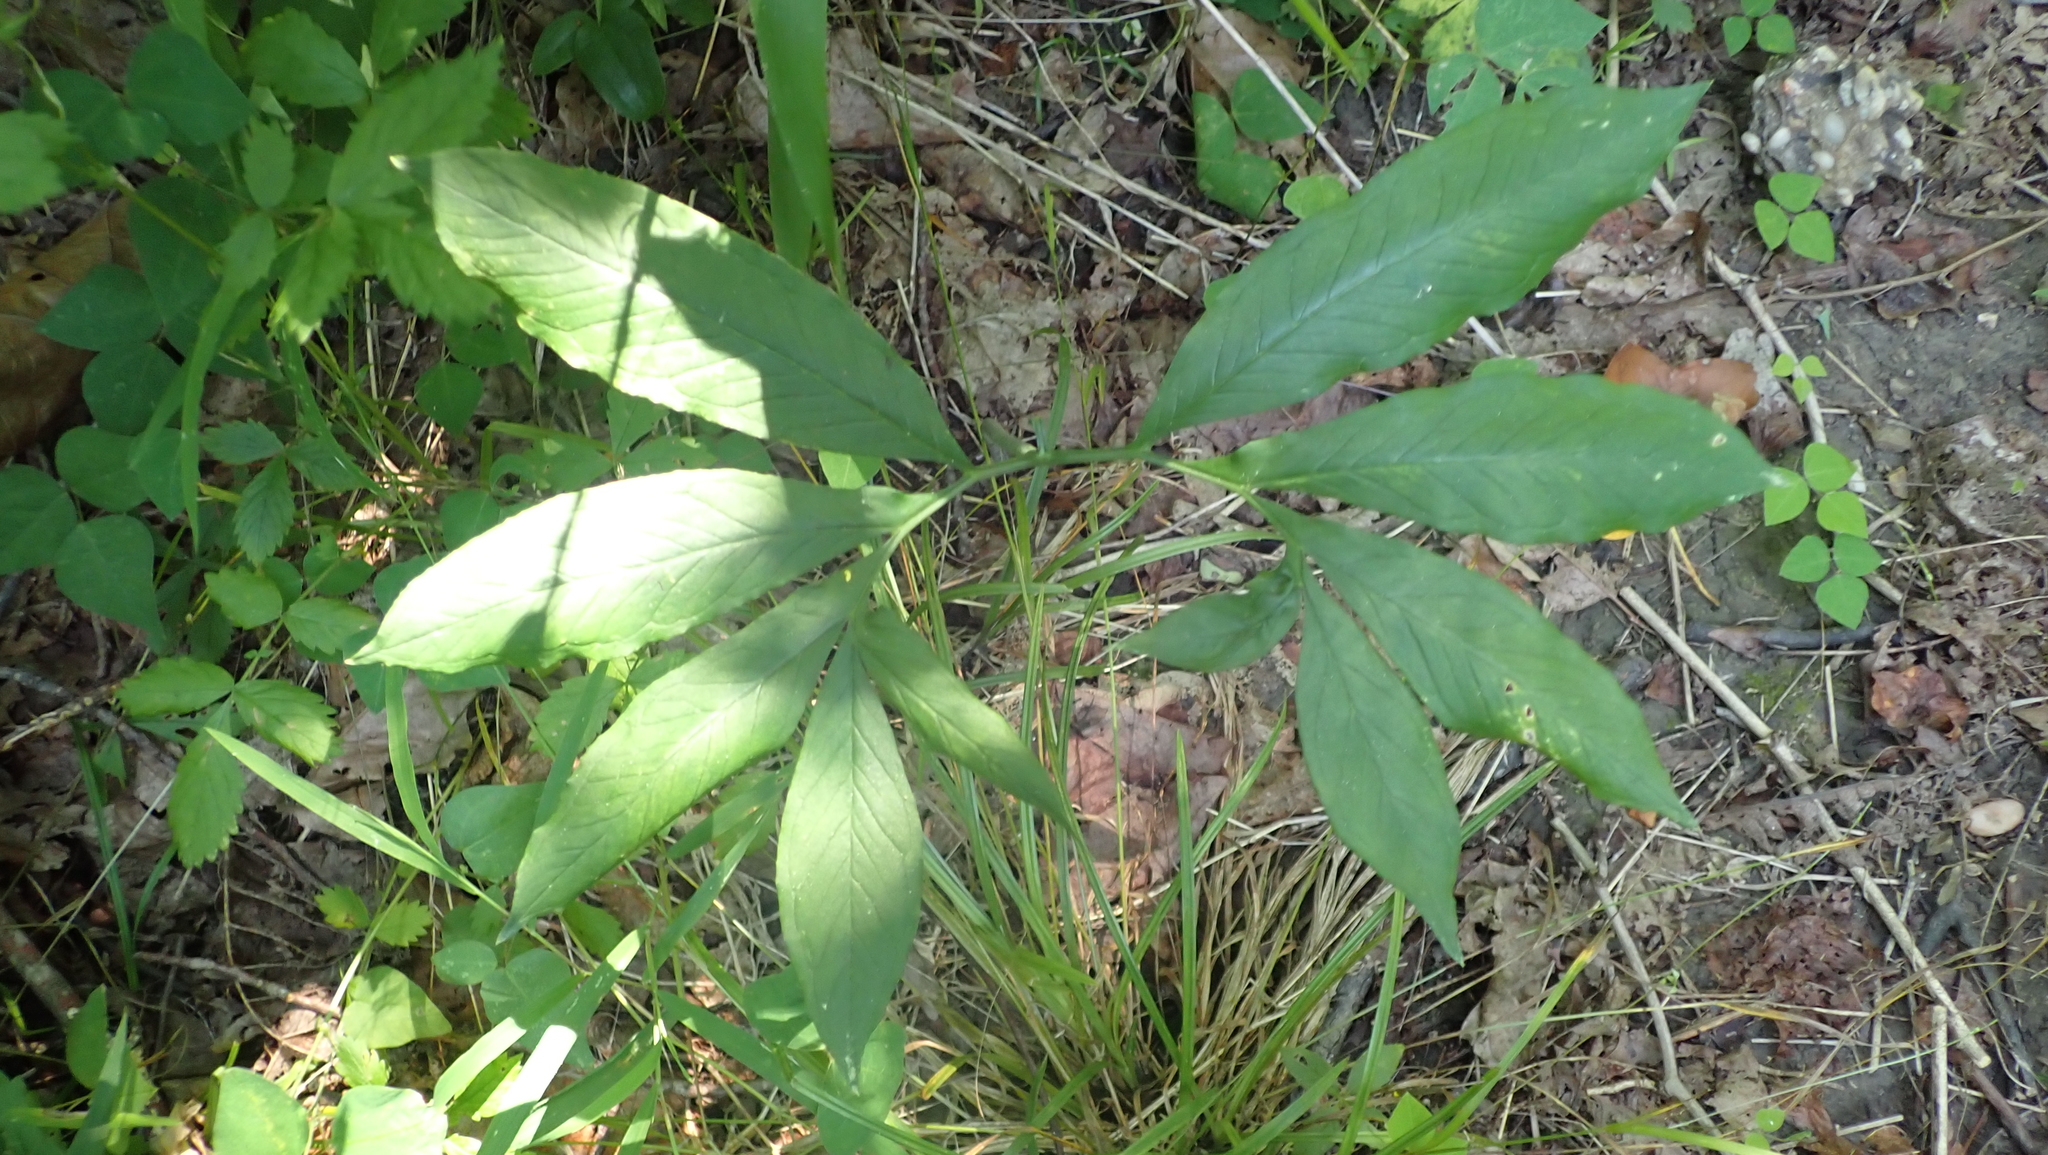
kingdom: Plantae
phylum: Tracheophyta
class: Liliopsida
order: Alismatales
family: Araceae
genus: Arisaema
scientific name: Arisaema dracontium
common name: Dragon-arum
